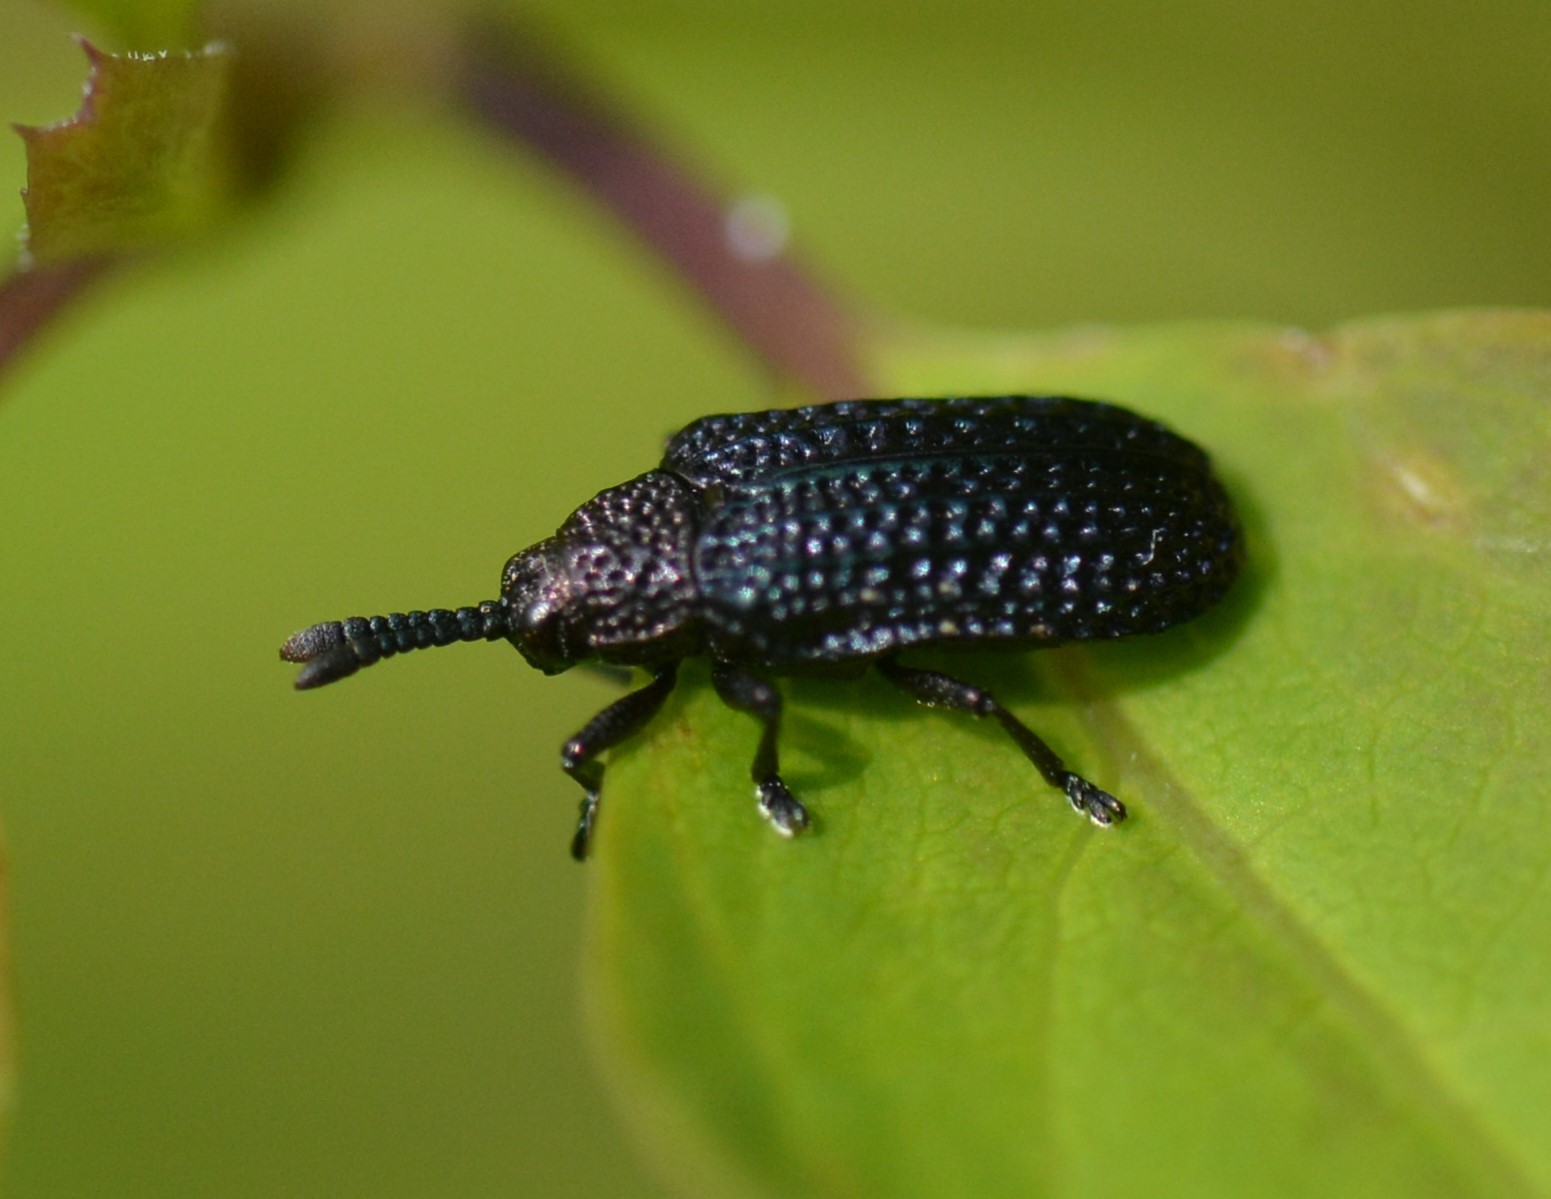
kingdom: Animalia
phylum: Arthropoda
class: Insecta
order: Coleoptera
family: Chrysomelidae
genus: Microrhopala
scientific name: Microrhopala excavata
